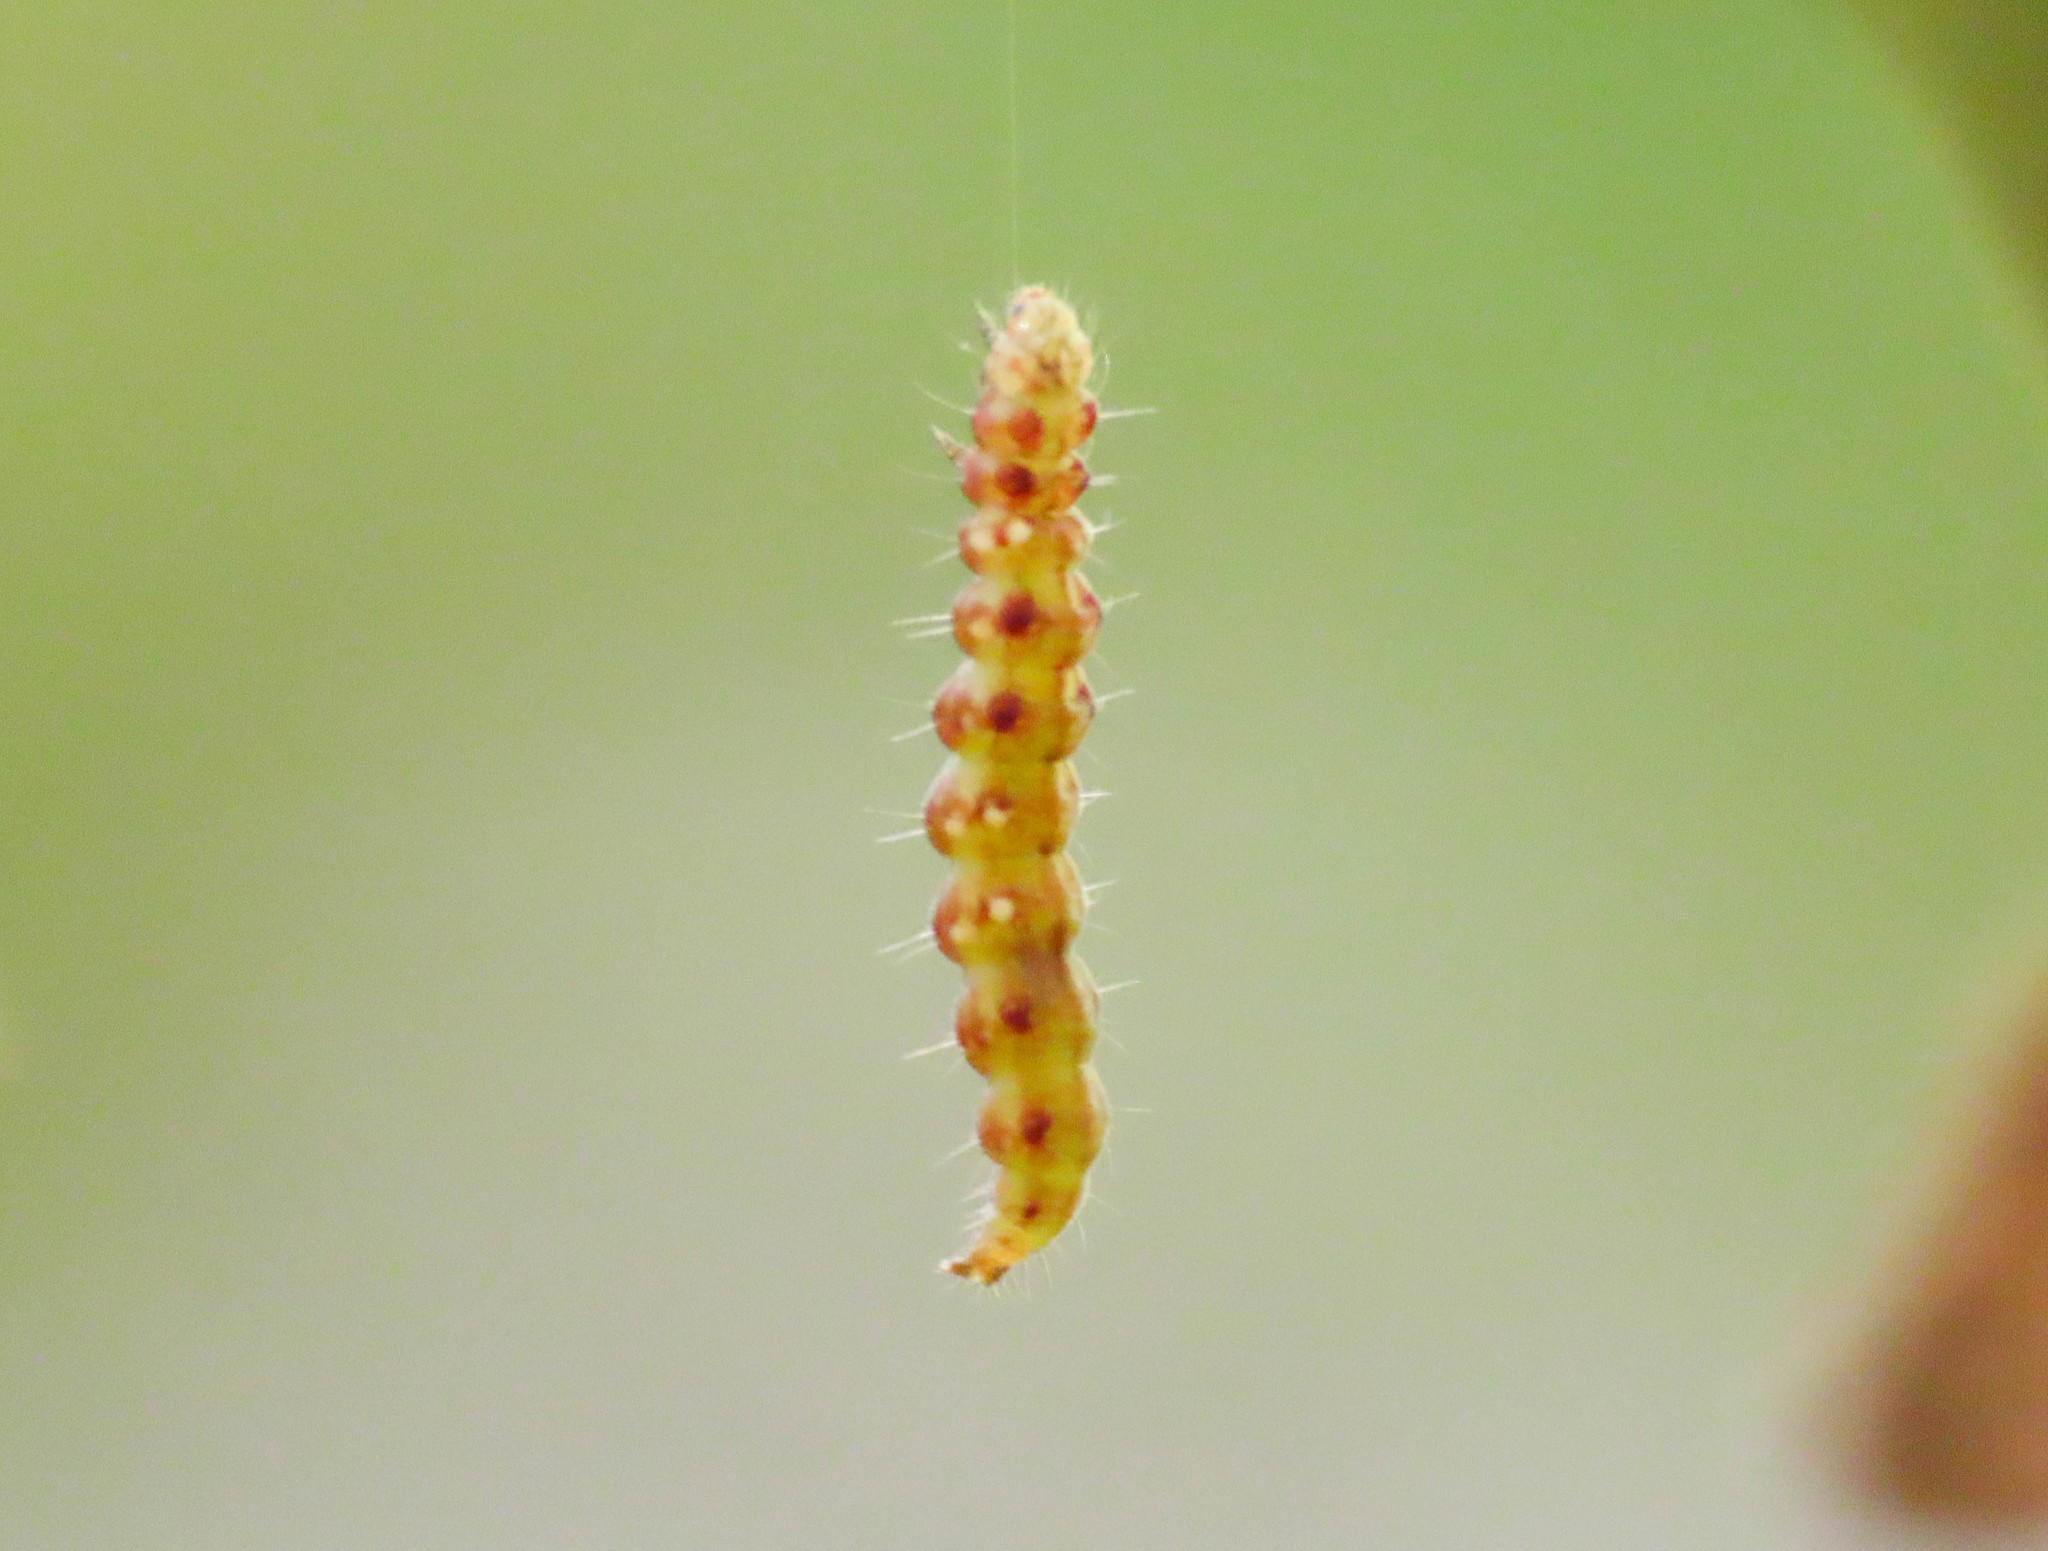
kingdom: Animalia
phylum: Arthropoda
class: Insecta
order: Lepidoptera
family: Bedelliidae
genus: Bedellia
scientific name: Bedellia somnulentella
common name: Morning-glory leafminer moth
